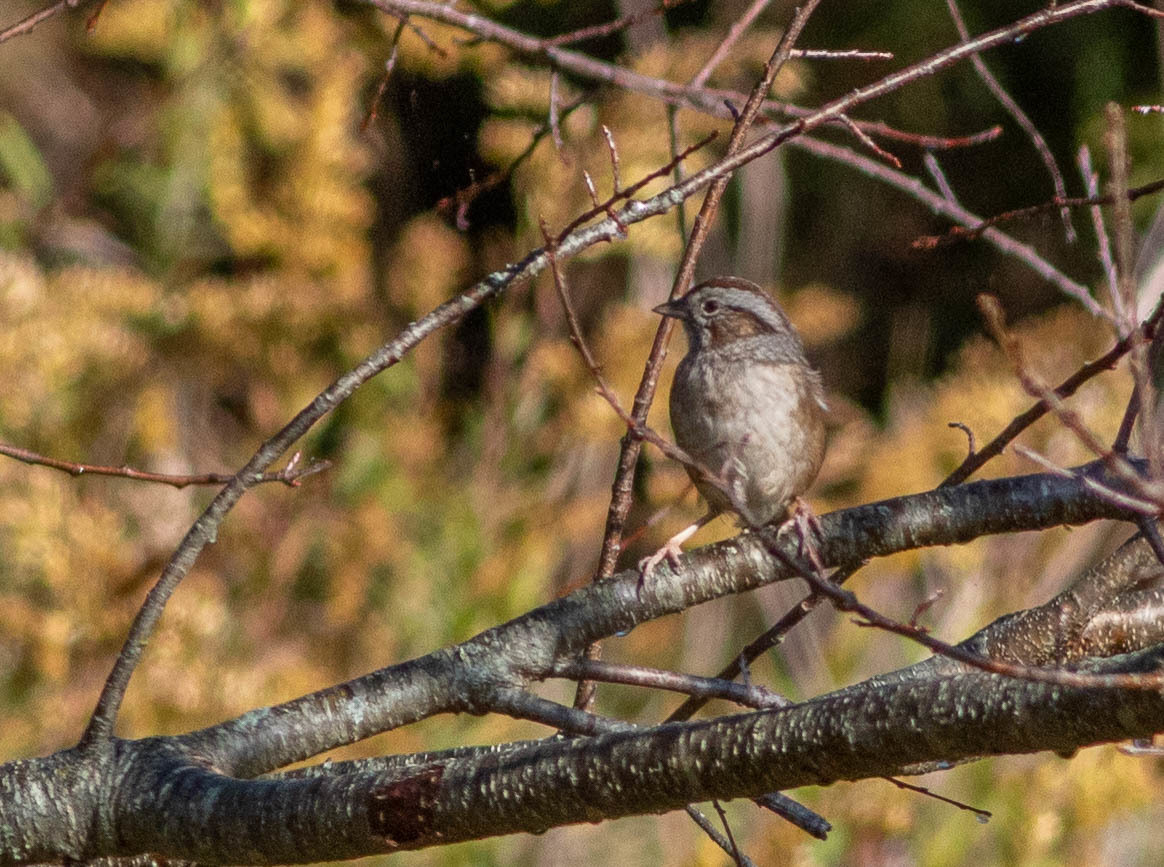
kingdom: Animalia
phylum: Chordata
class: Aves
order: Passeriformes
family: Passerellidae
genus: Melospiza
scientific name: Melospiza georgiana
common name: Swamp sparrow
